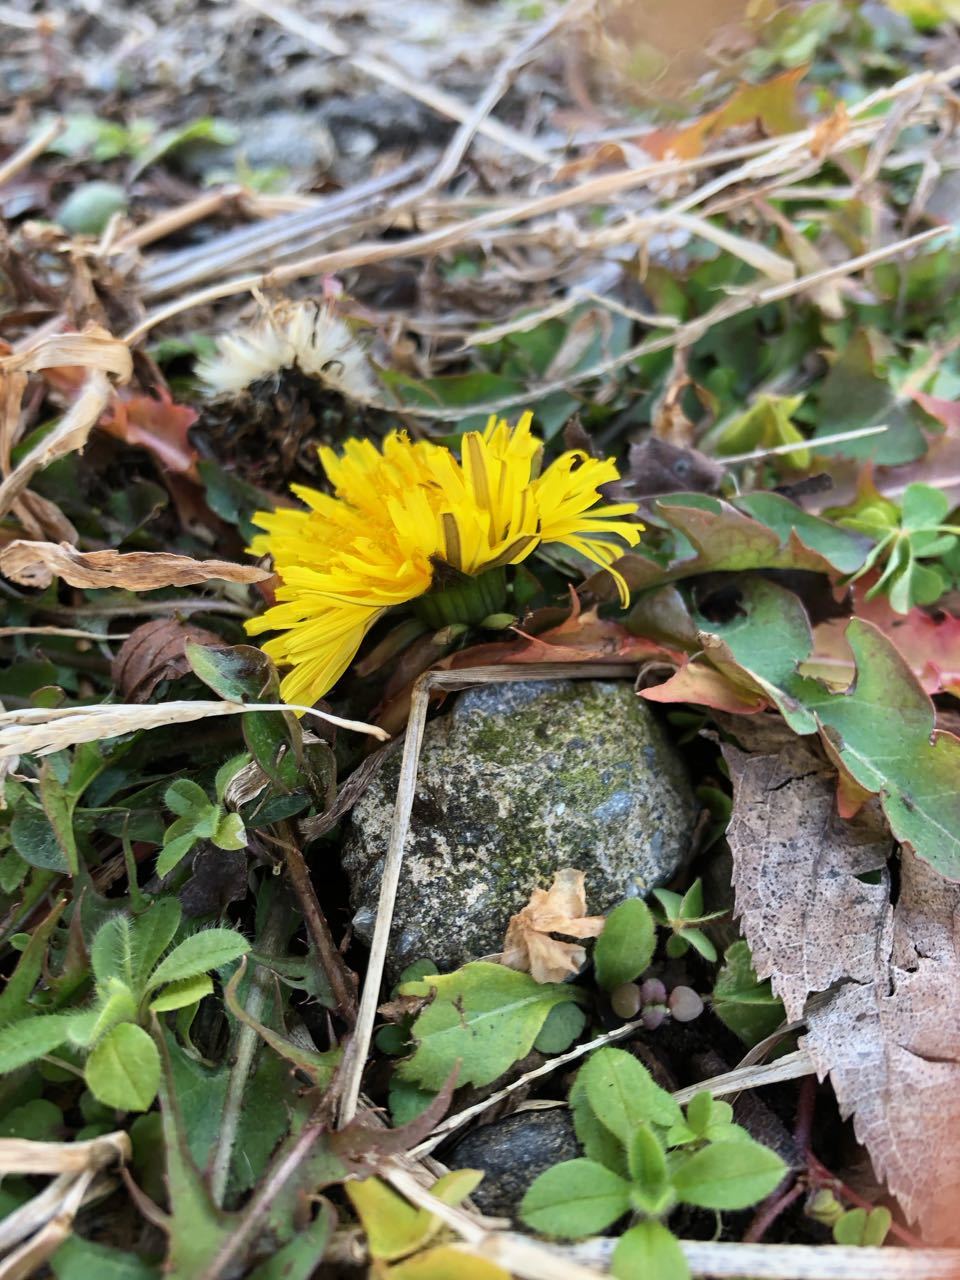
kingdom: Plantae
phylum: Tracheophyta
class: Magnoliopsida
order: Asterales
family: Asteraceae
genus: Taraxacum
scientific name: Taraxacum officinale
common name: Common dandelion
